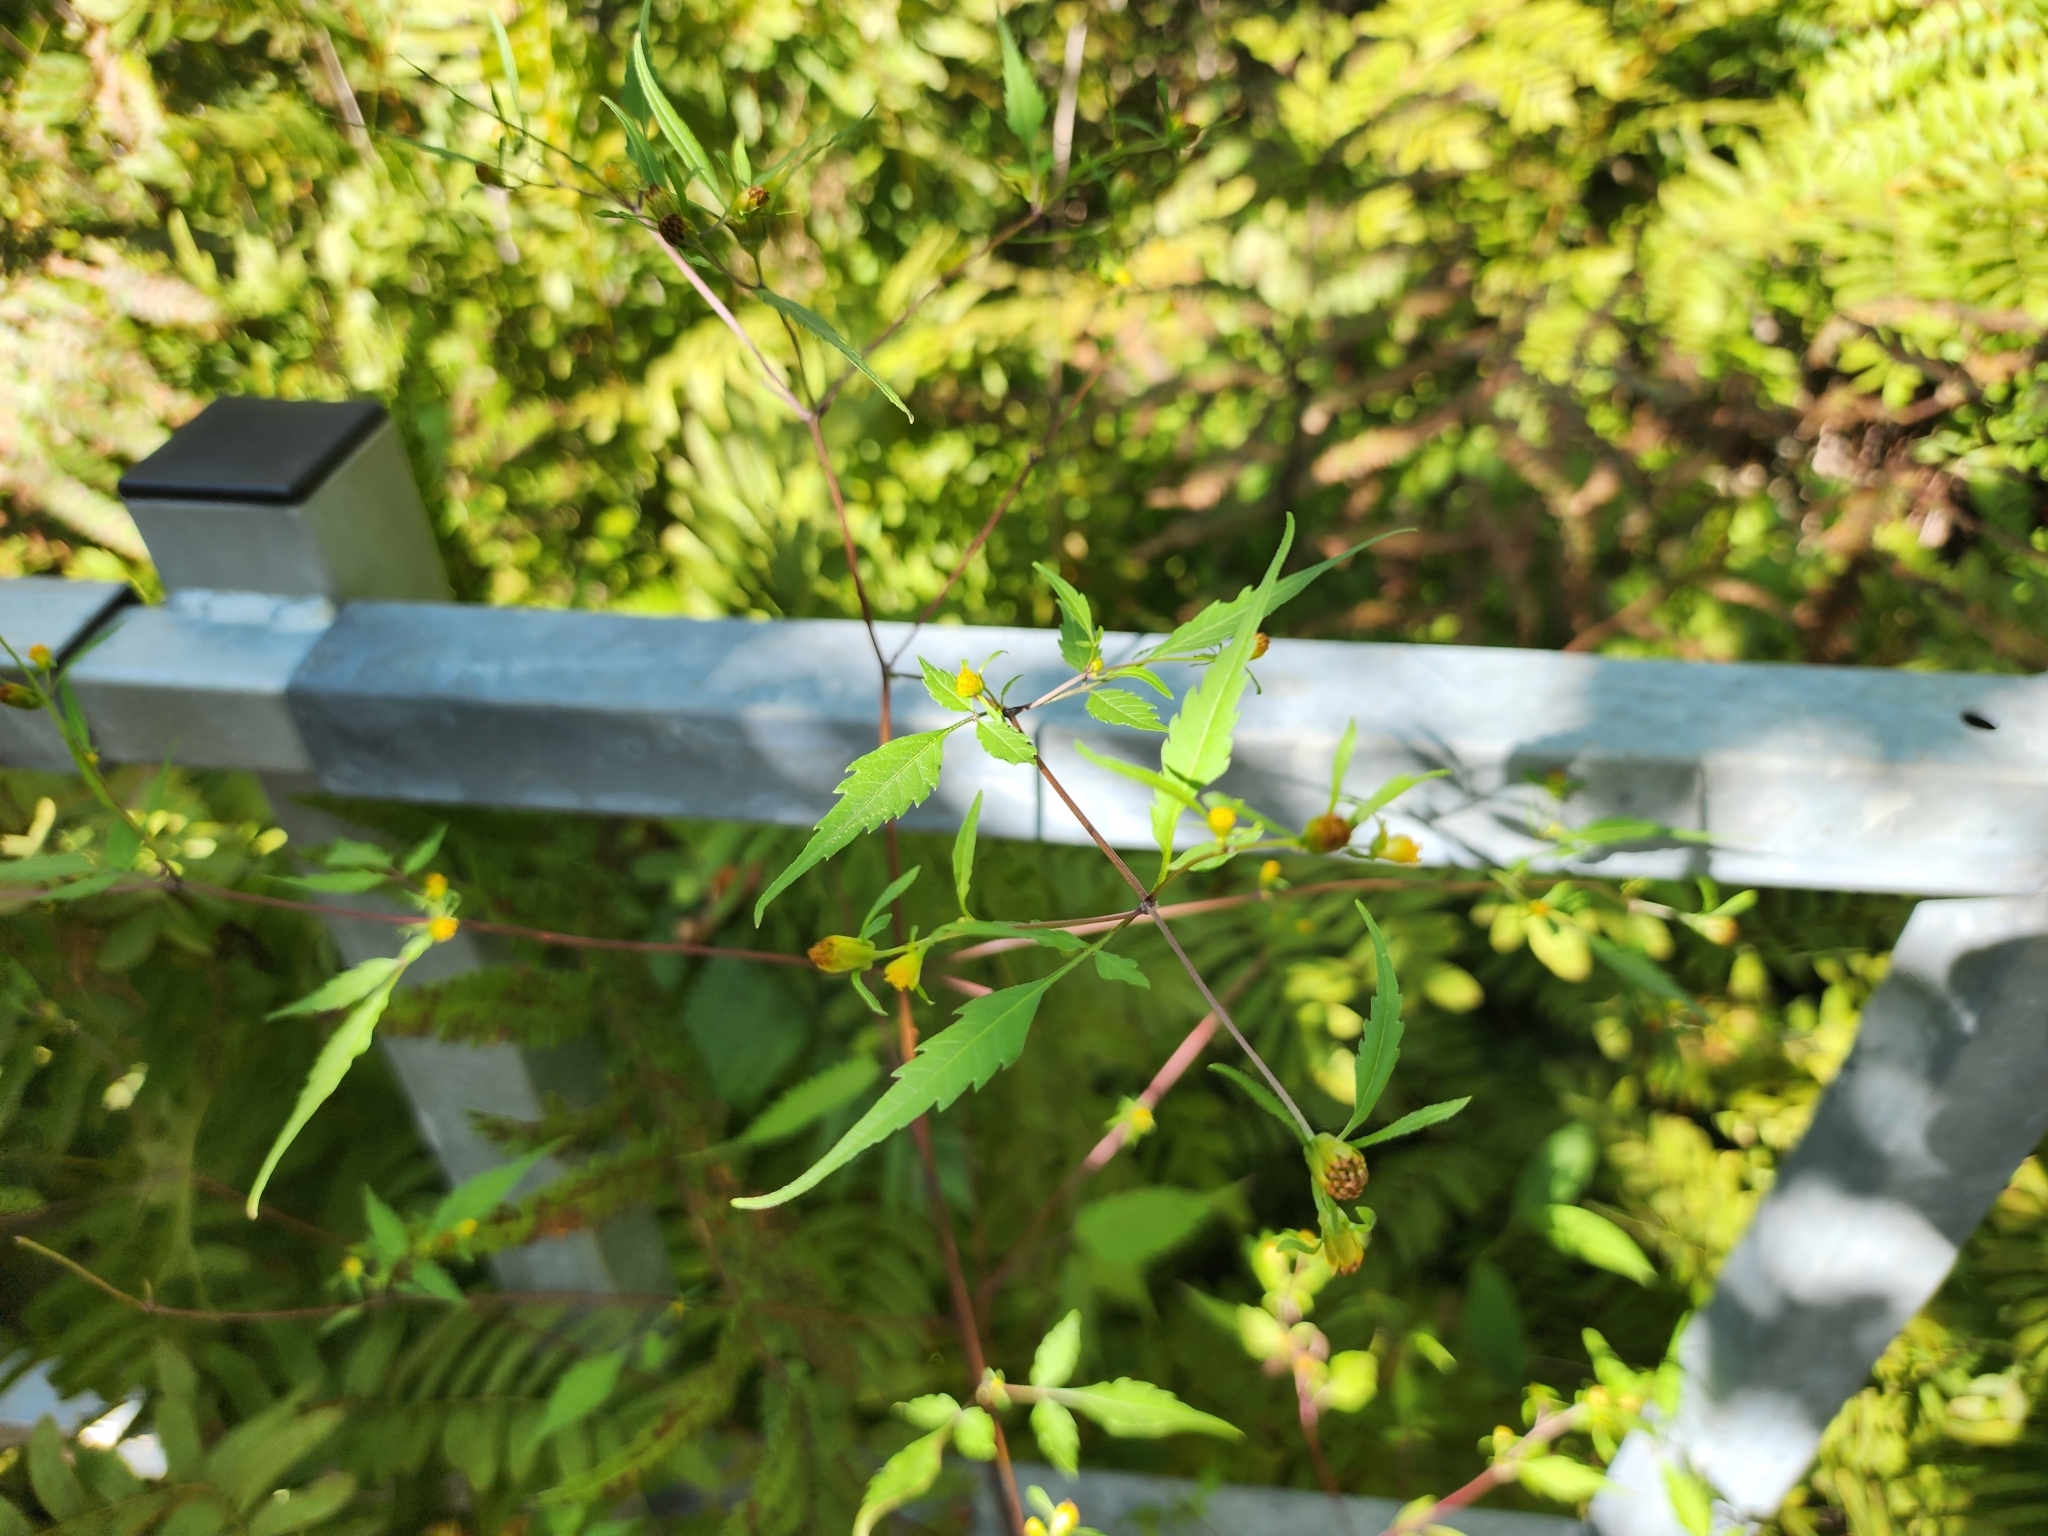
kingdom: Plantae
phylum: Tracheophyta
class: Magnoliopsida
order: Asterales
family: Asteraceae
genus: Bidens
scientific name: Bidens discoidea
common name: Discoide beggarticks
